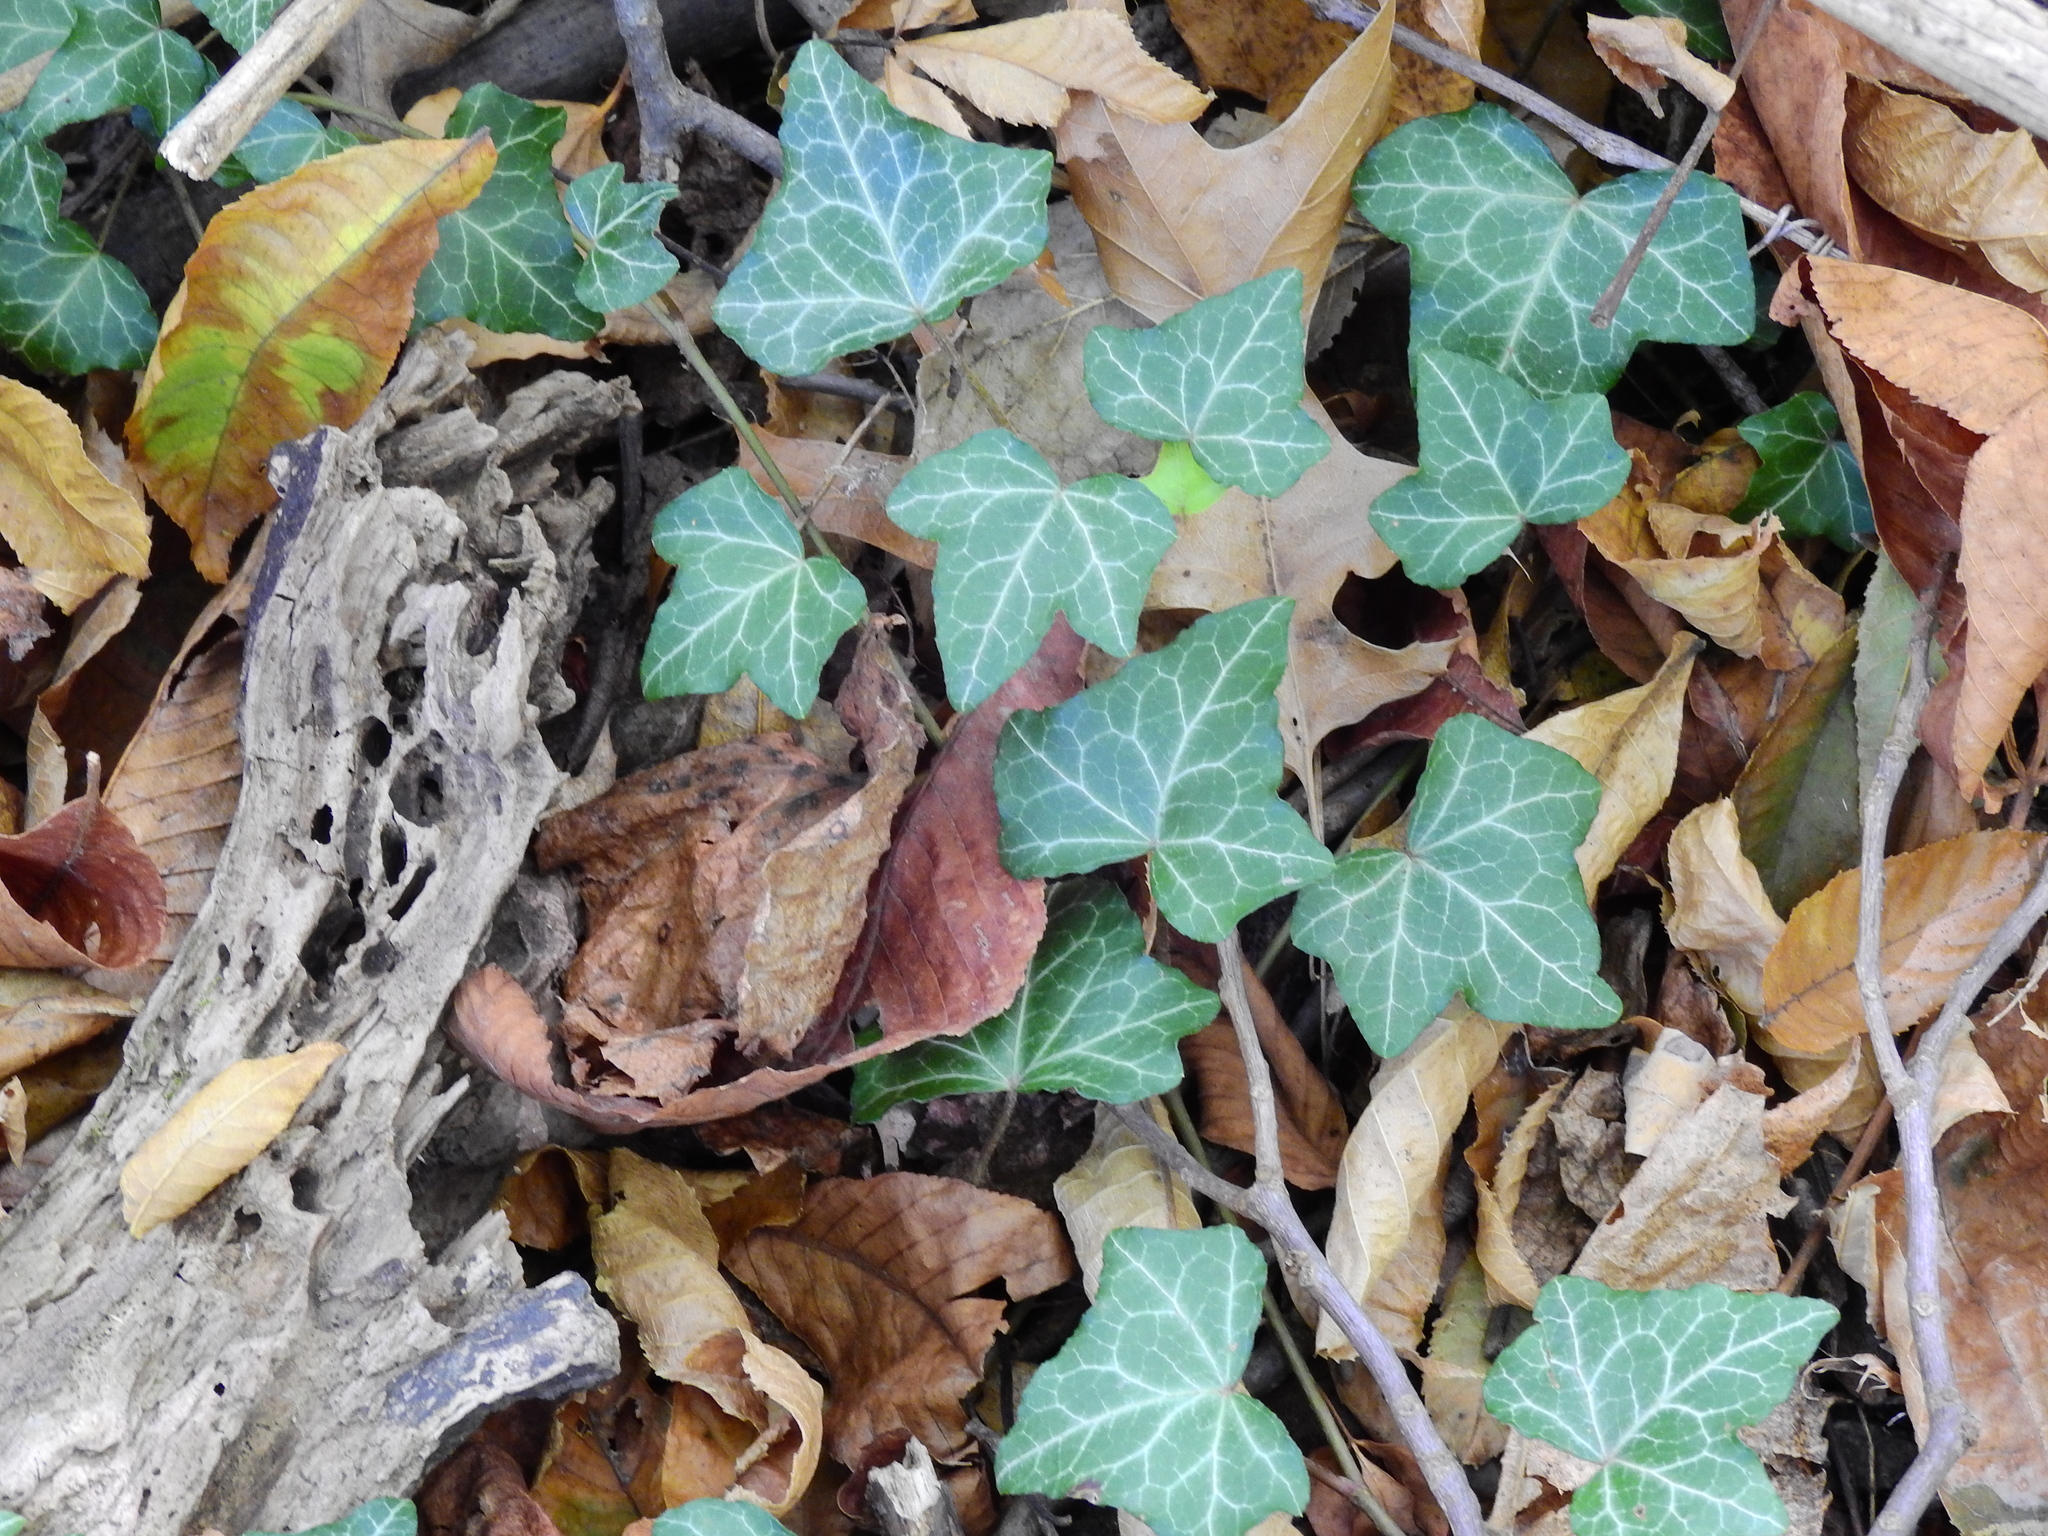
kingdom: Plantae
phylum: Tracheophyta
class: Magnoliopsida
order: Apiales
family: Araliaceae
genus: Hedera
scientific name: Hedera helix
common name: Ivy
